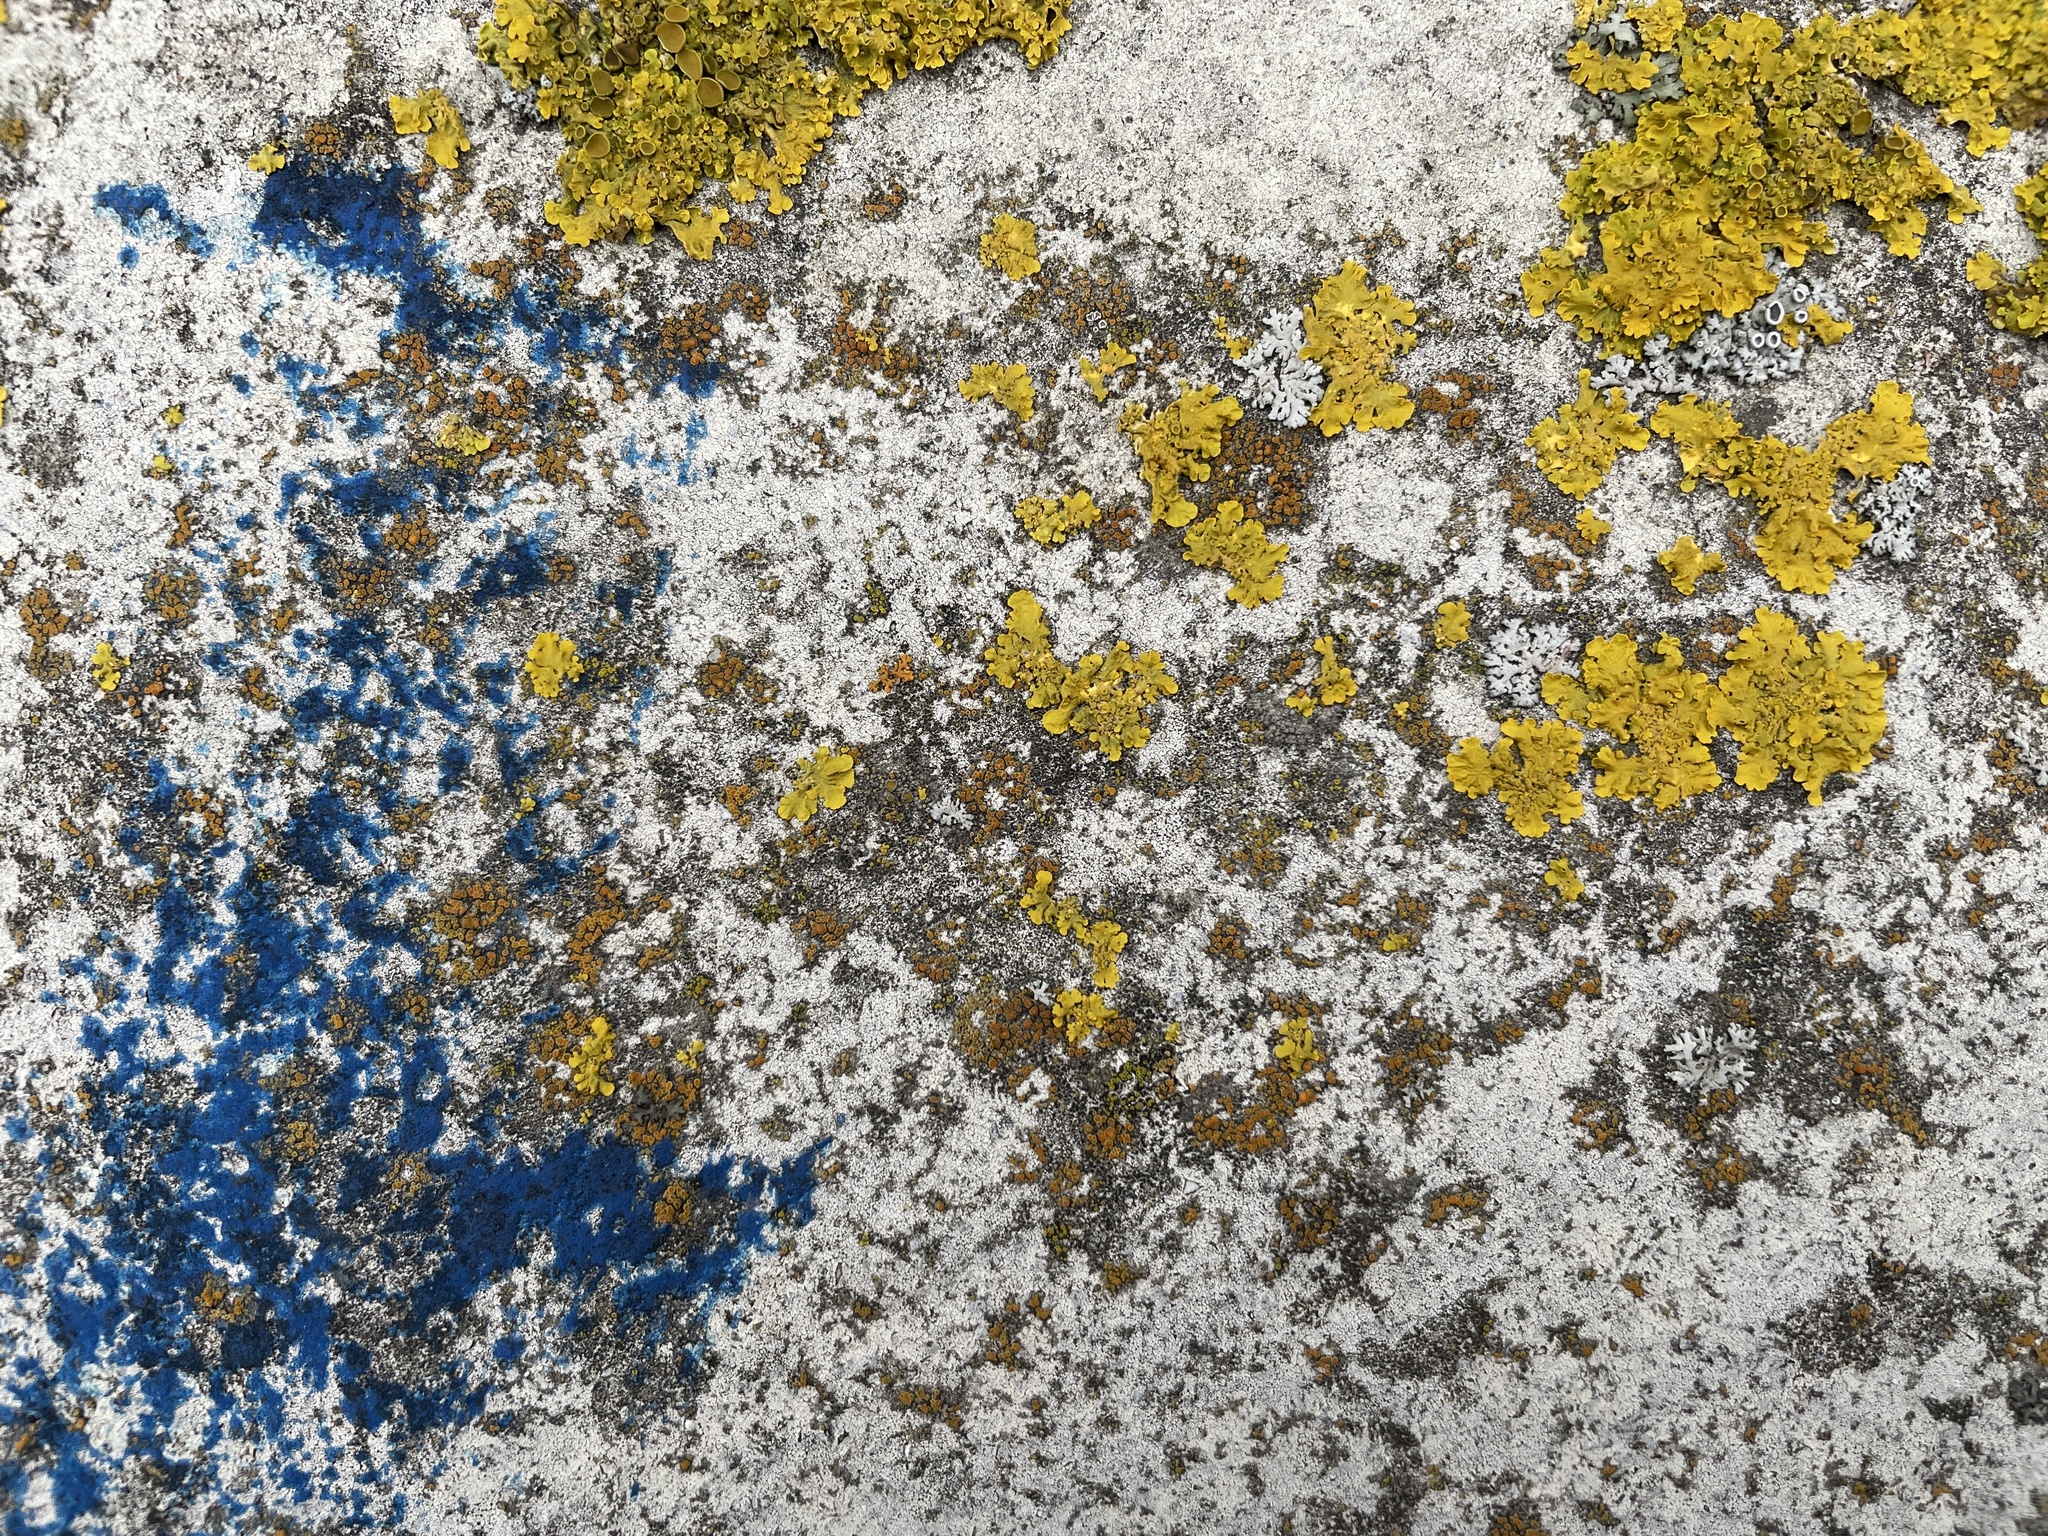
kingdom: Fungi
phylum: Ascomycota
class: Lecanoromycetes
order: Teloschistales
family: Teloschistaceae
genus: Xanthoria
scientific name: Xanthoria parietina
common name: Common orange lichen
